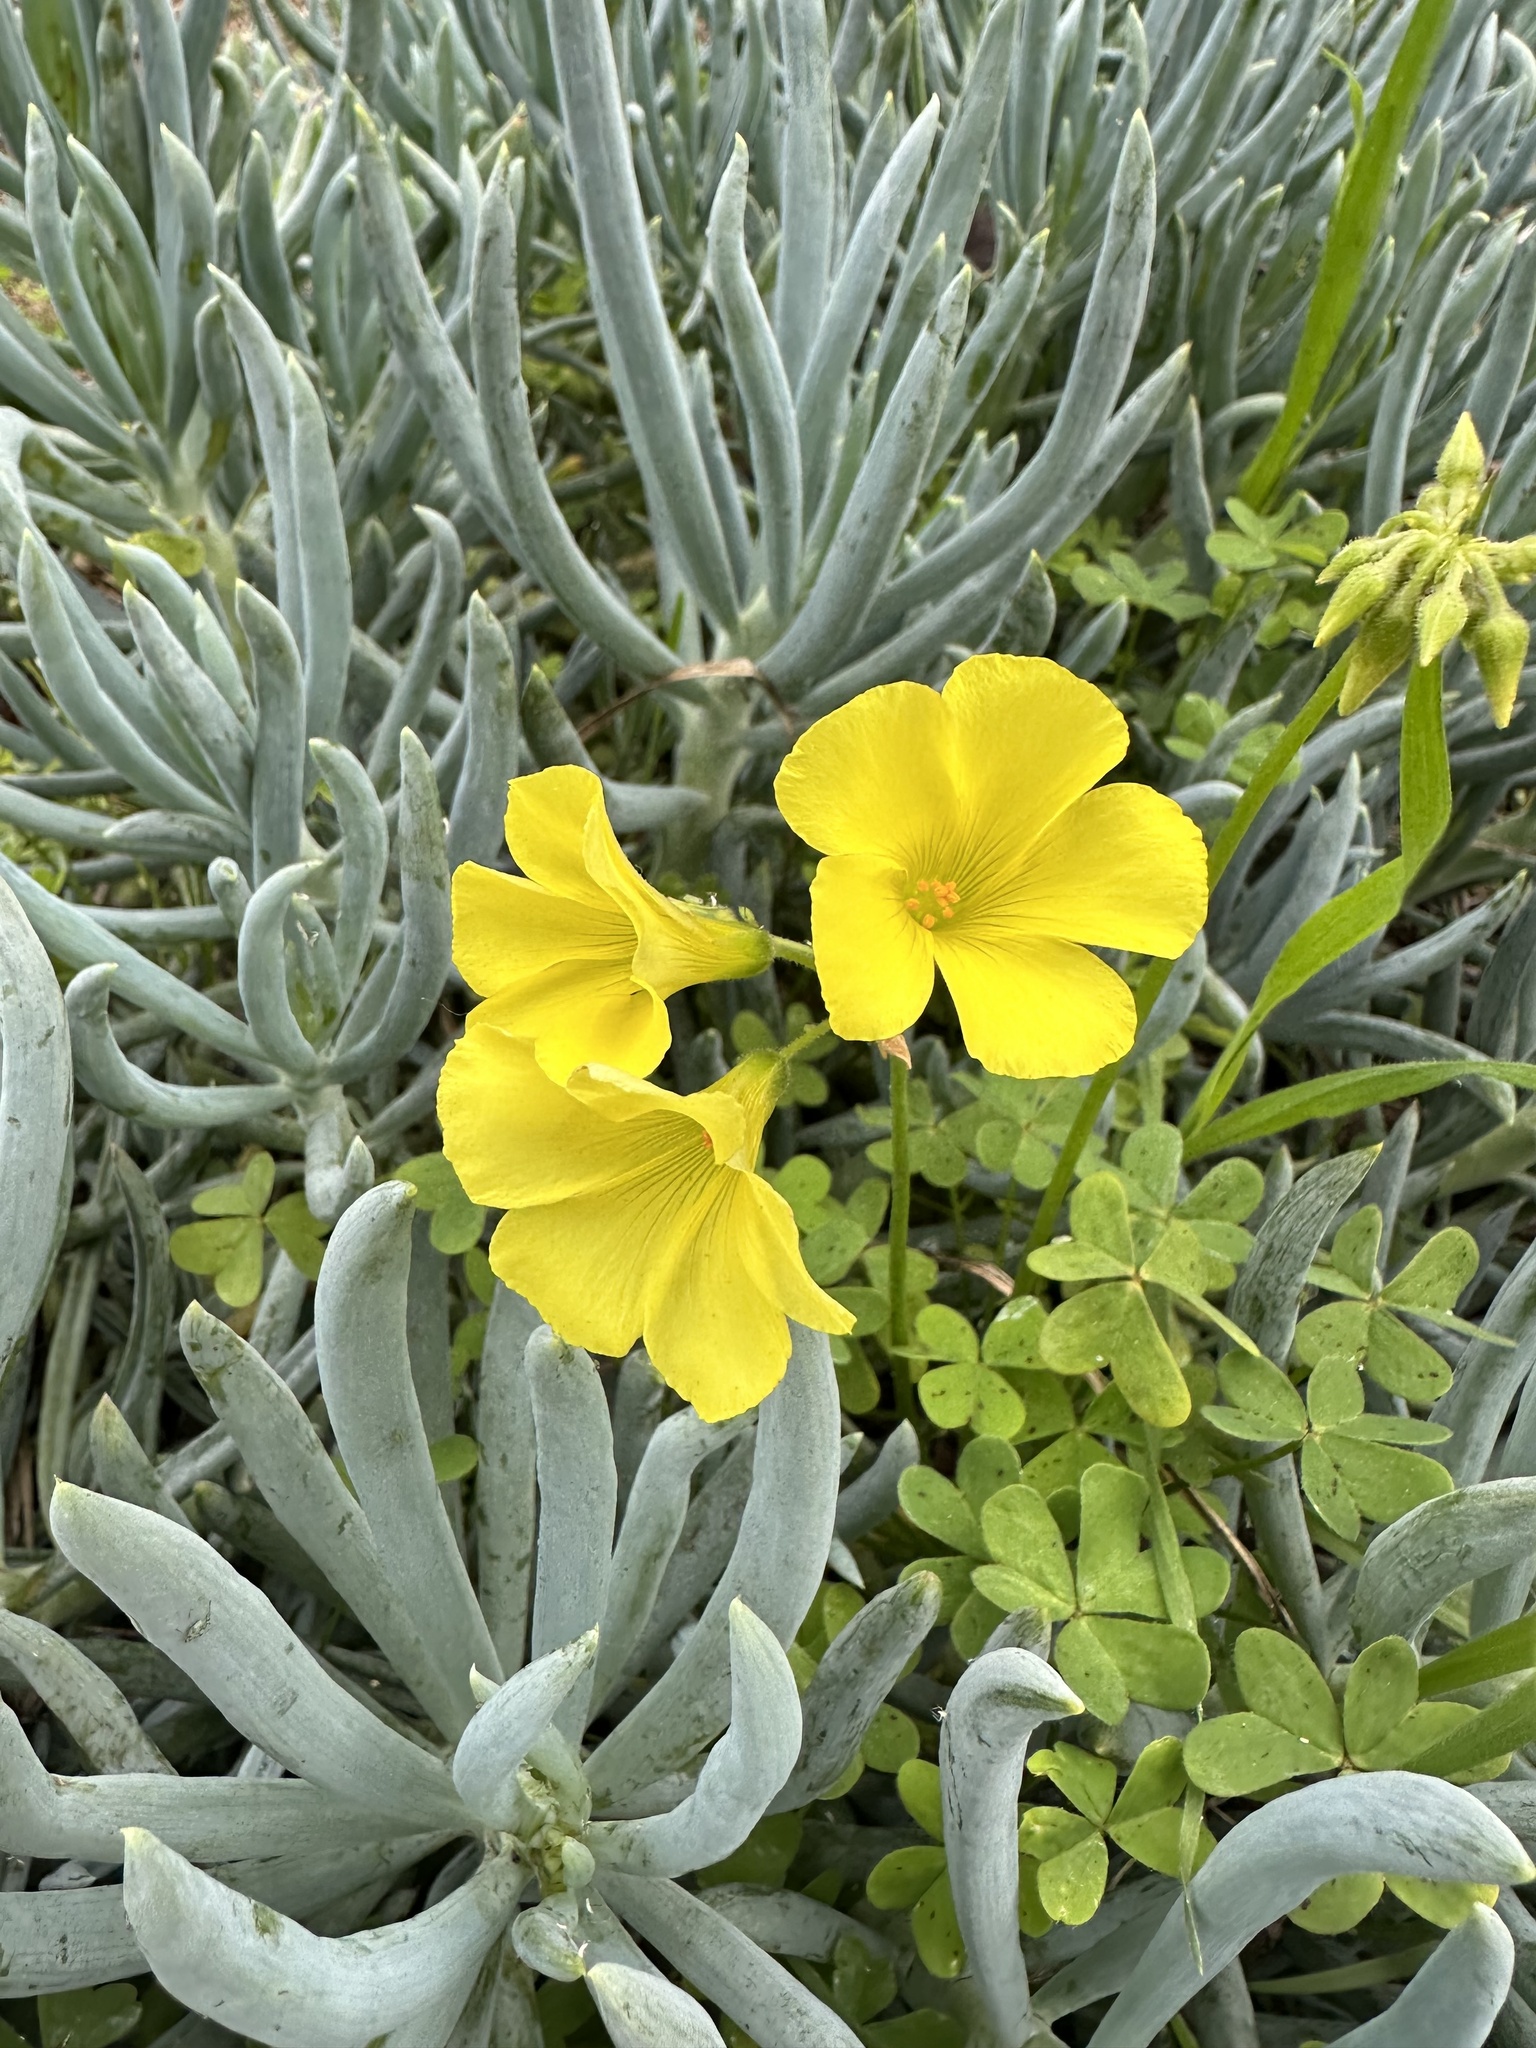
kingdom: Plantae
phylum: Tracheophyta
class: Magnoliopsida
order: Oxalidales
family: Oxalidaceae
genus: Oxalis
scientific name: Oxalis pes-caprae
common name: Bermuda-buttercup
